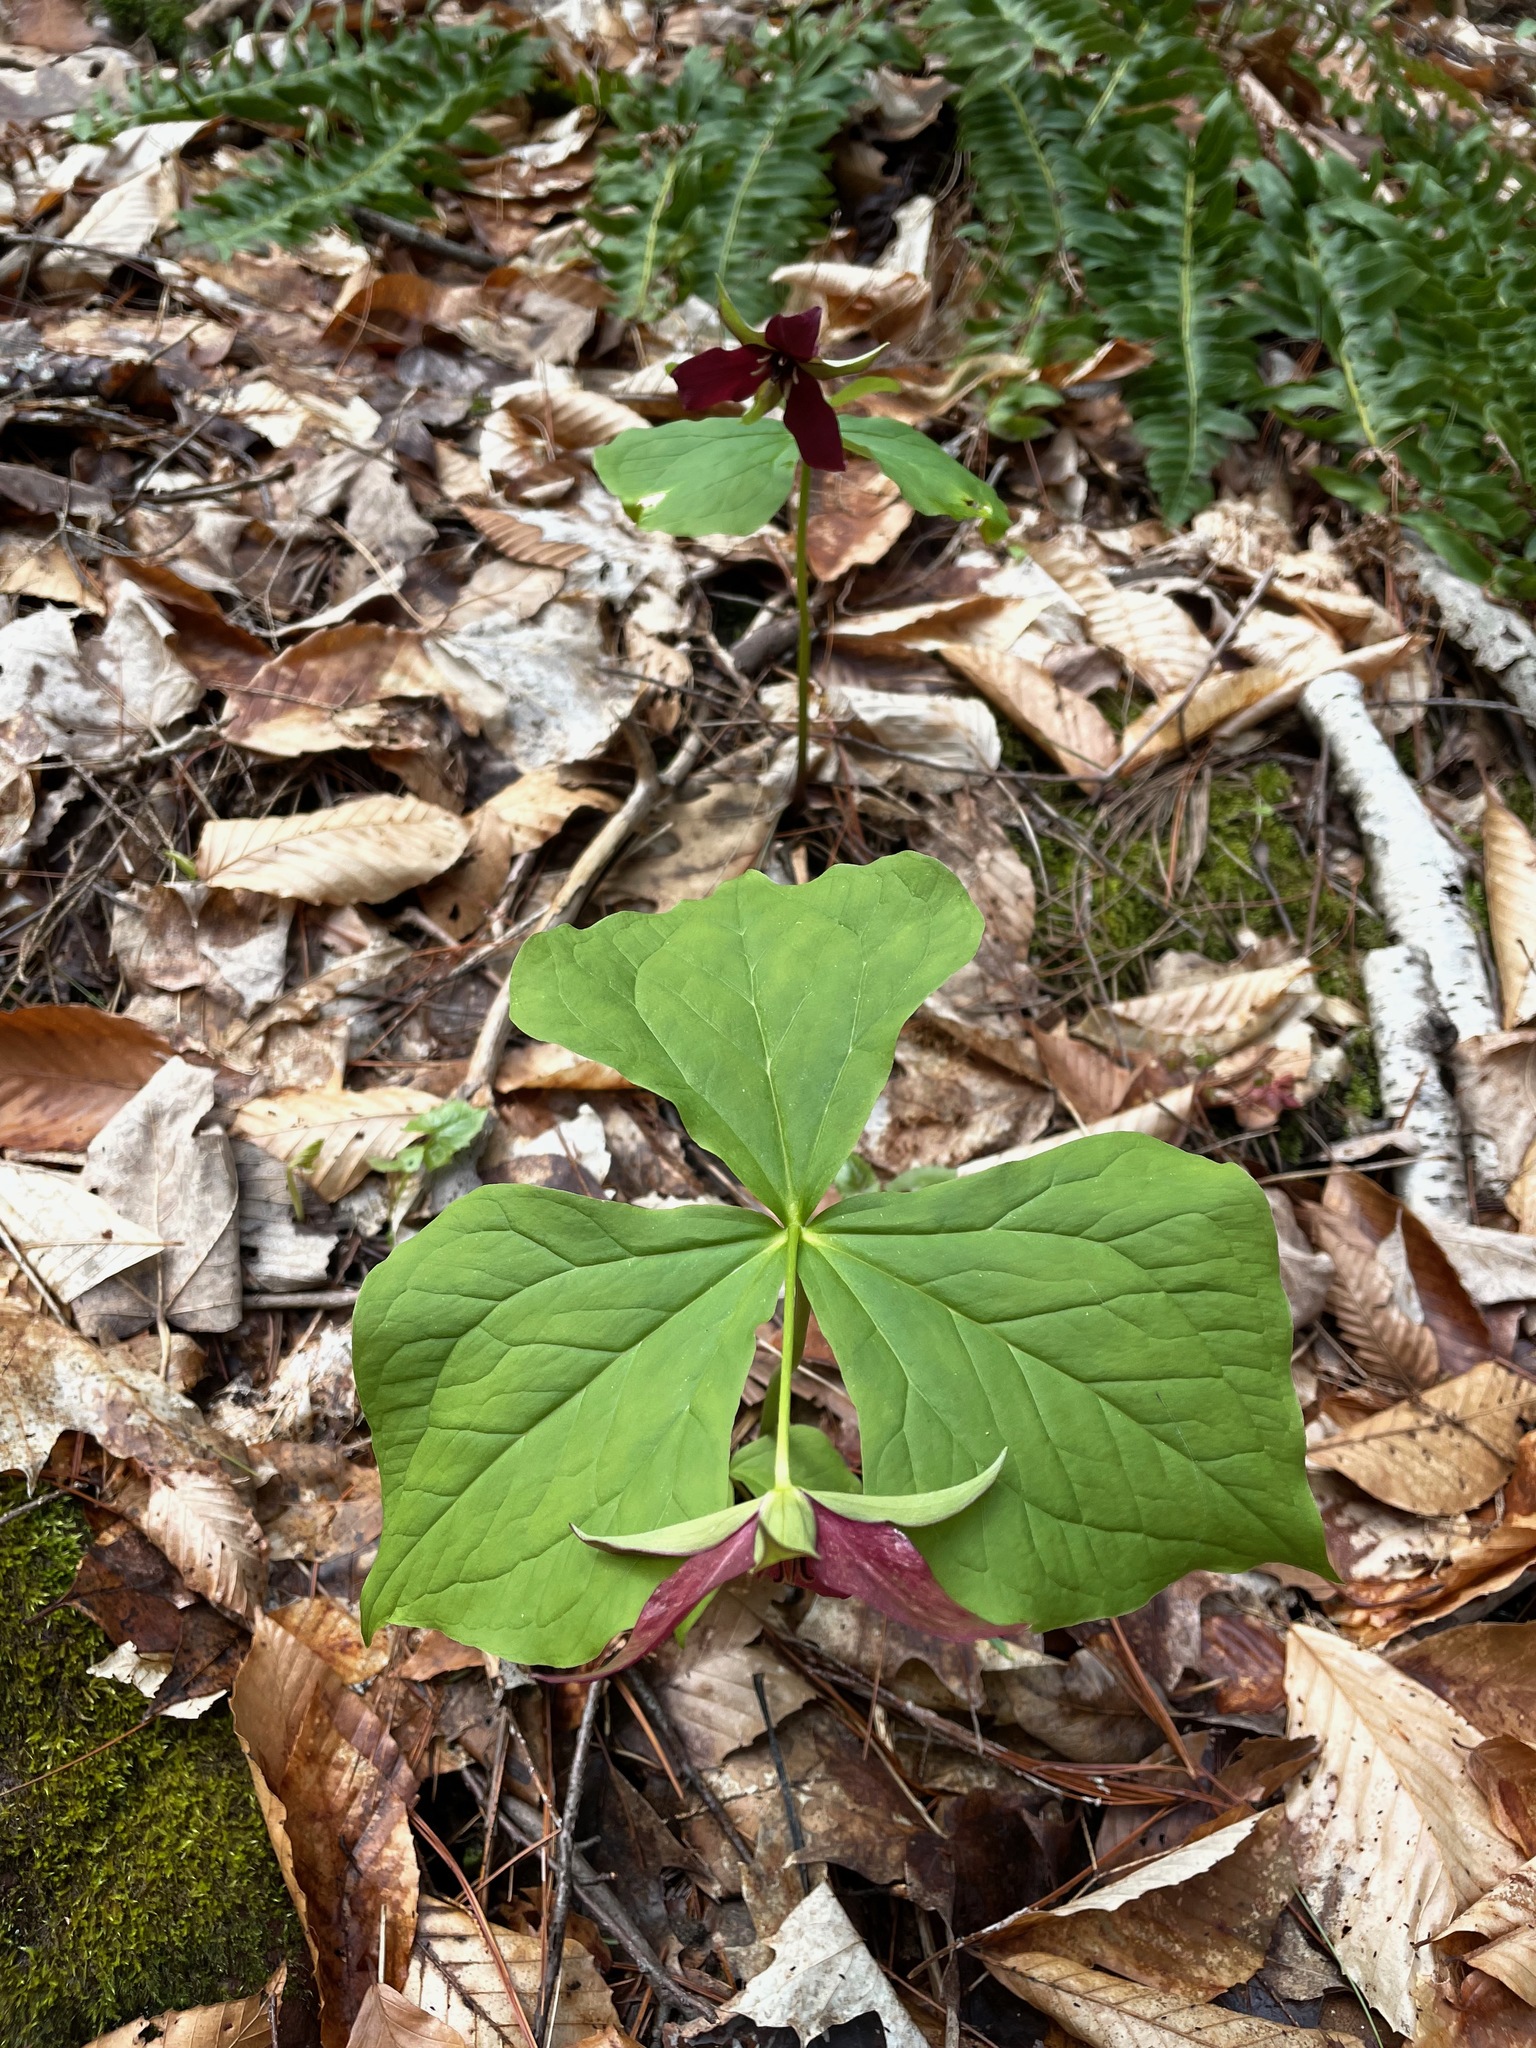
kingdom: Plantae
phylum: Tracheophyta
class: Liliopsida
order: Liliales
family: Melanthiaceae
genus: Trillium
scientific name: Trillium erectum
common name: Purple trillium
